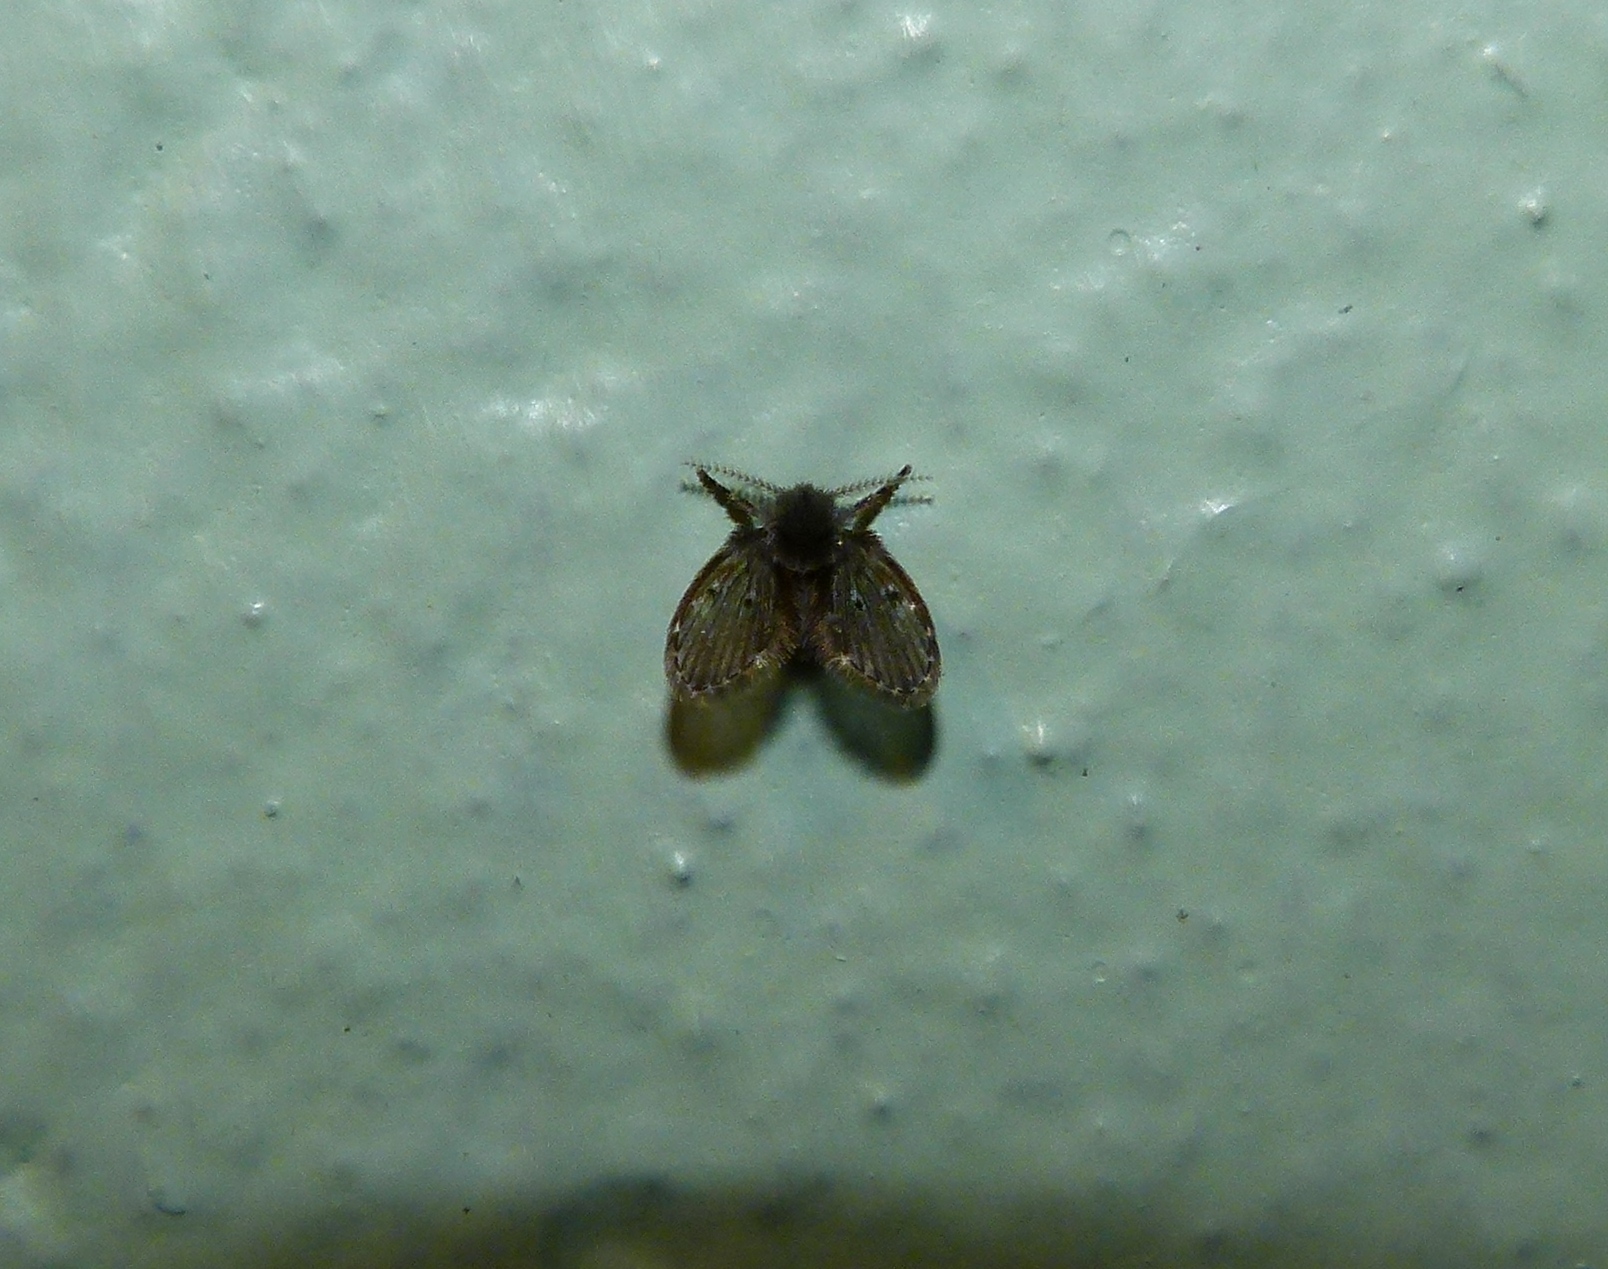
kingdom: Animalia
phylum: Arthropoda
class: Insecta
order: Diptera
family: Psychodidae
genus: Clogmia
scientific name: Clogmia albipunctatus
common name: White-spotted moth fly
